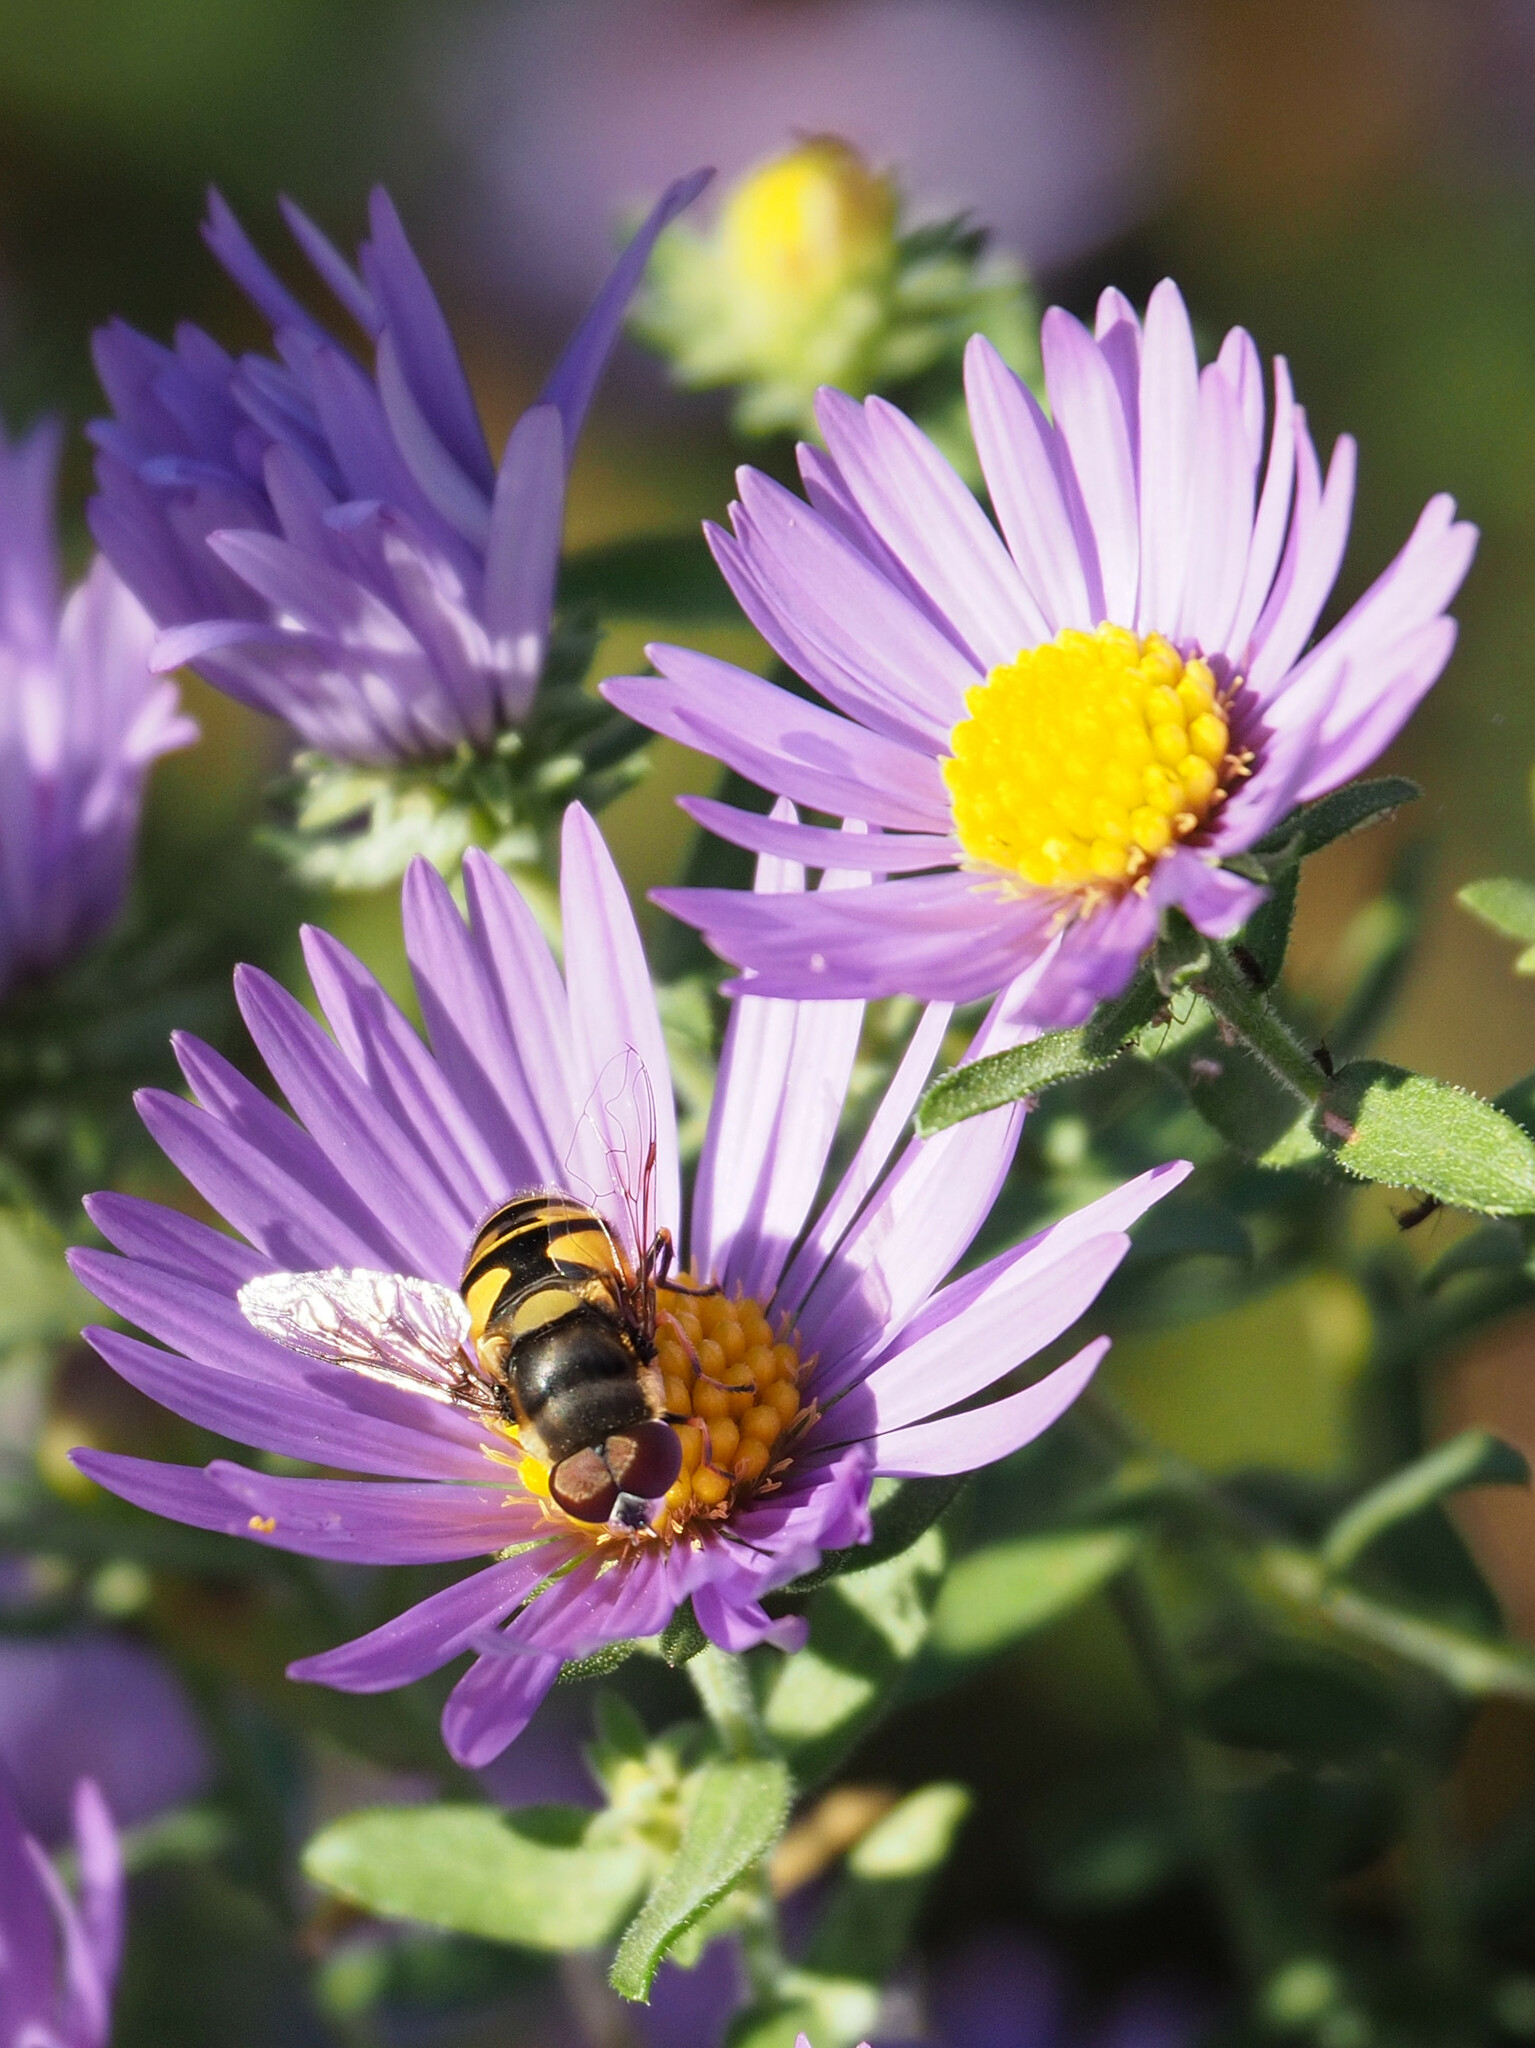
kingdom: Animalia
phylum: Arthropoda
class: Insecta
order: Diptera
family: Syrphidae
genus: Eristalis
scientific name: Eristalis transversa
